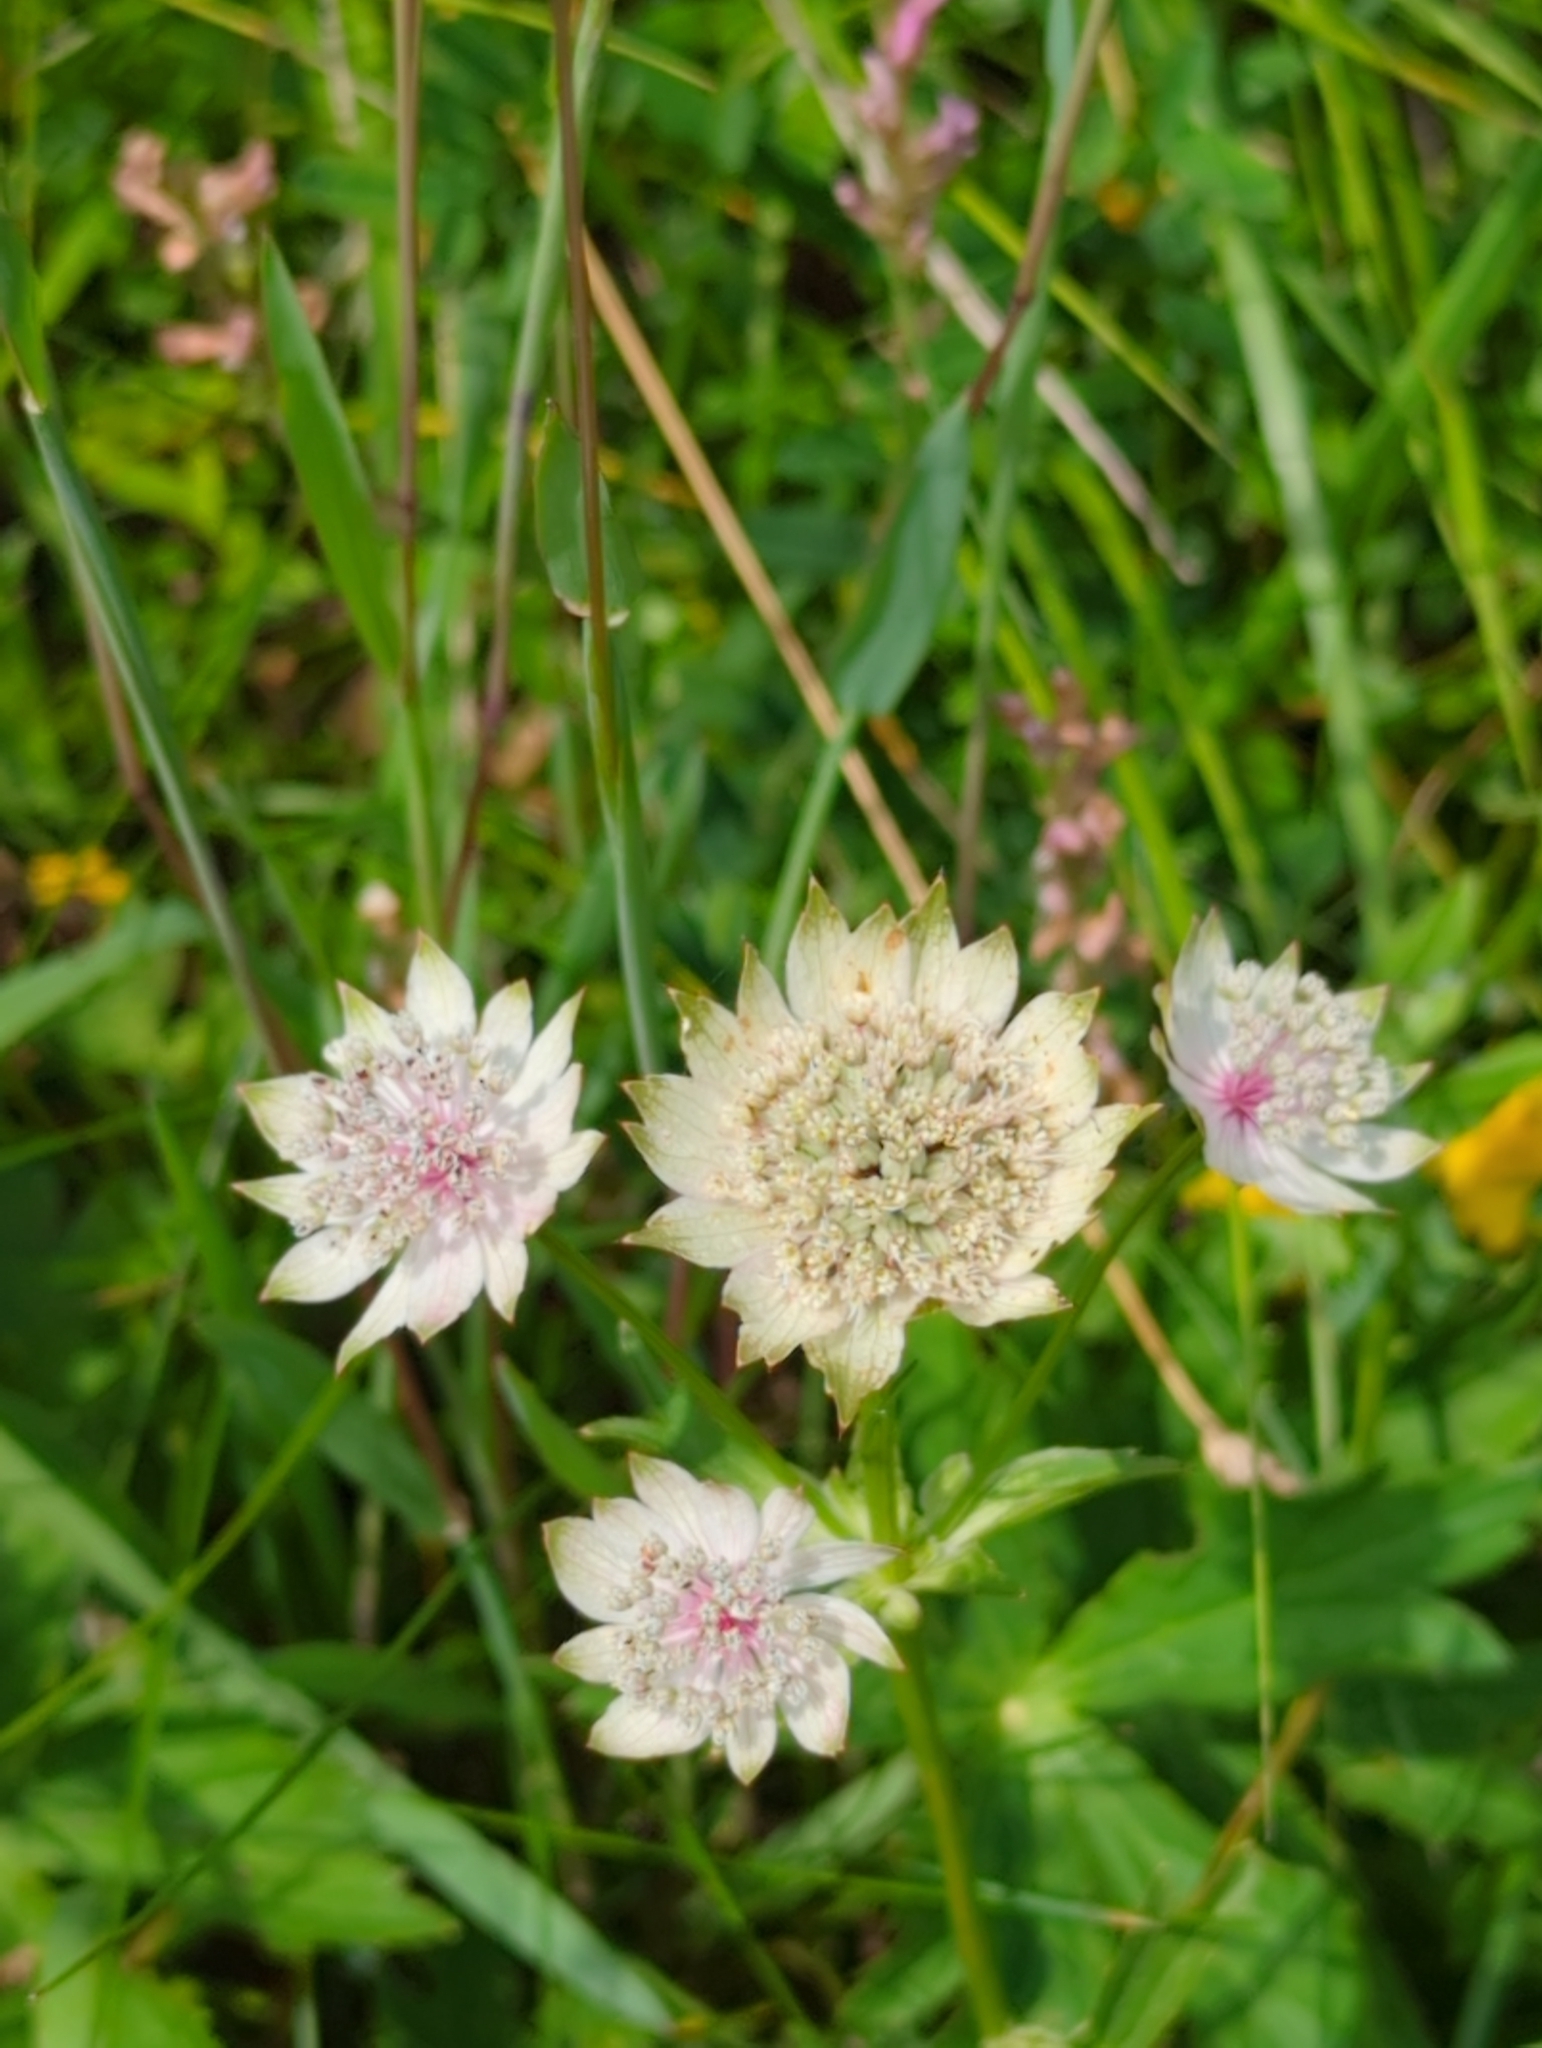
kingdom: Plantae
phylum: Tracheophyta
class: Magnoliopsida
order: Apiales
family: Apiaceae
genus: Astrantia
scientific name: Astrantia major
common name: Greater masterwort
